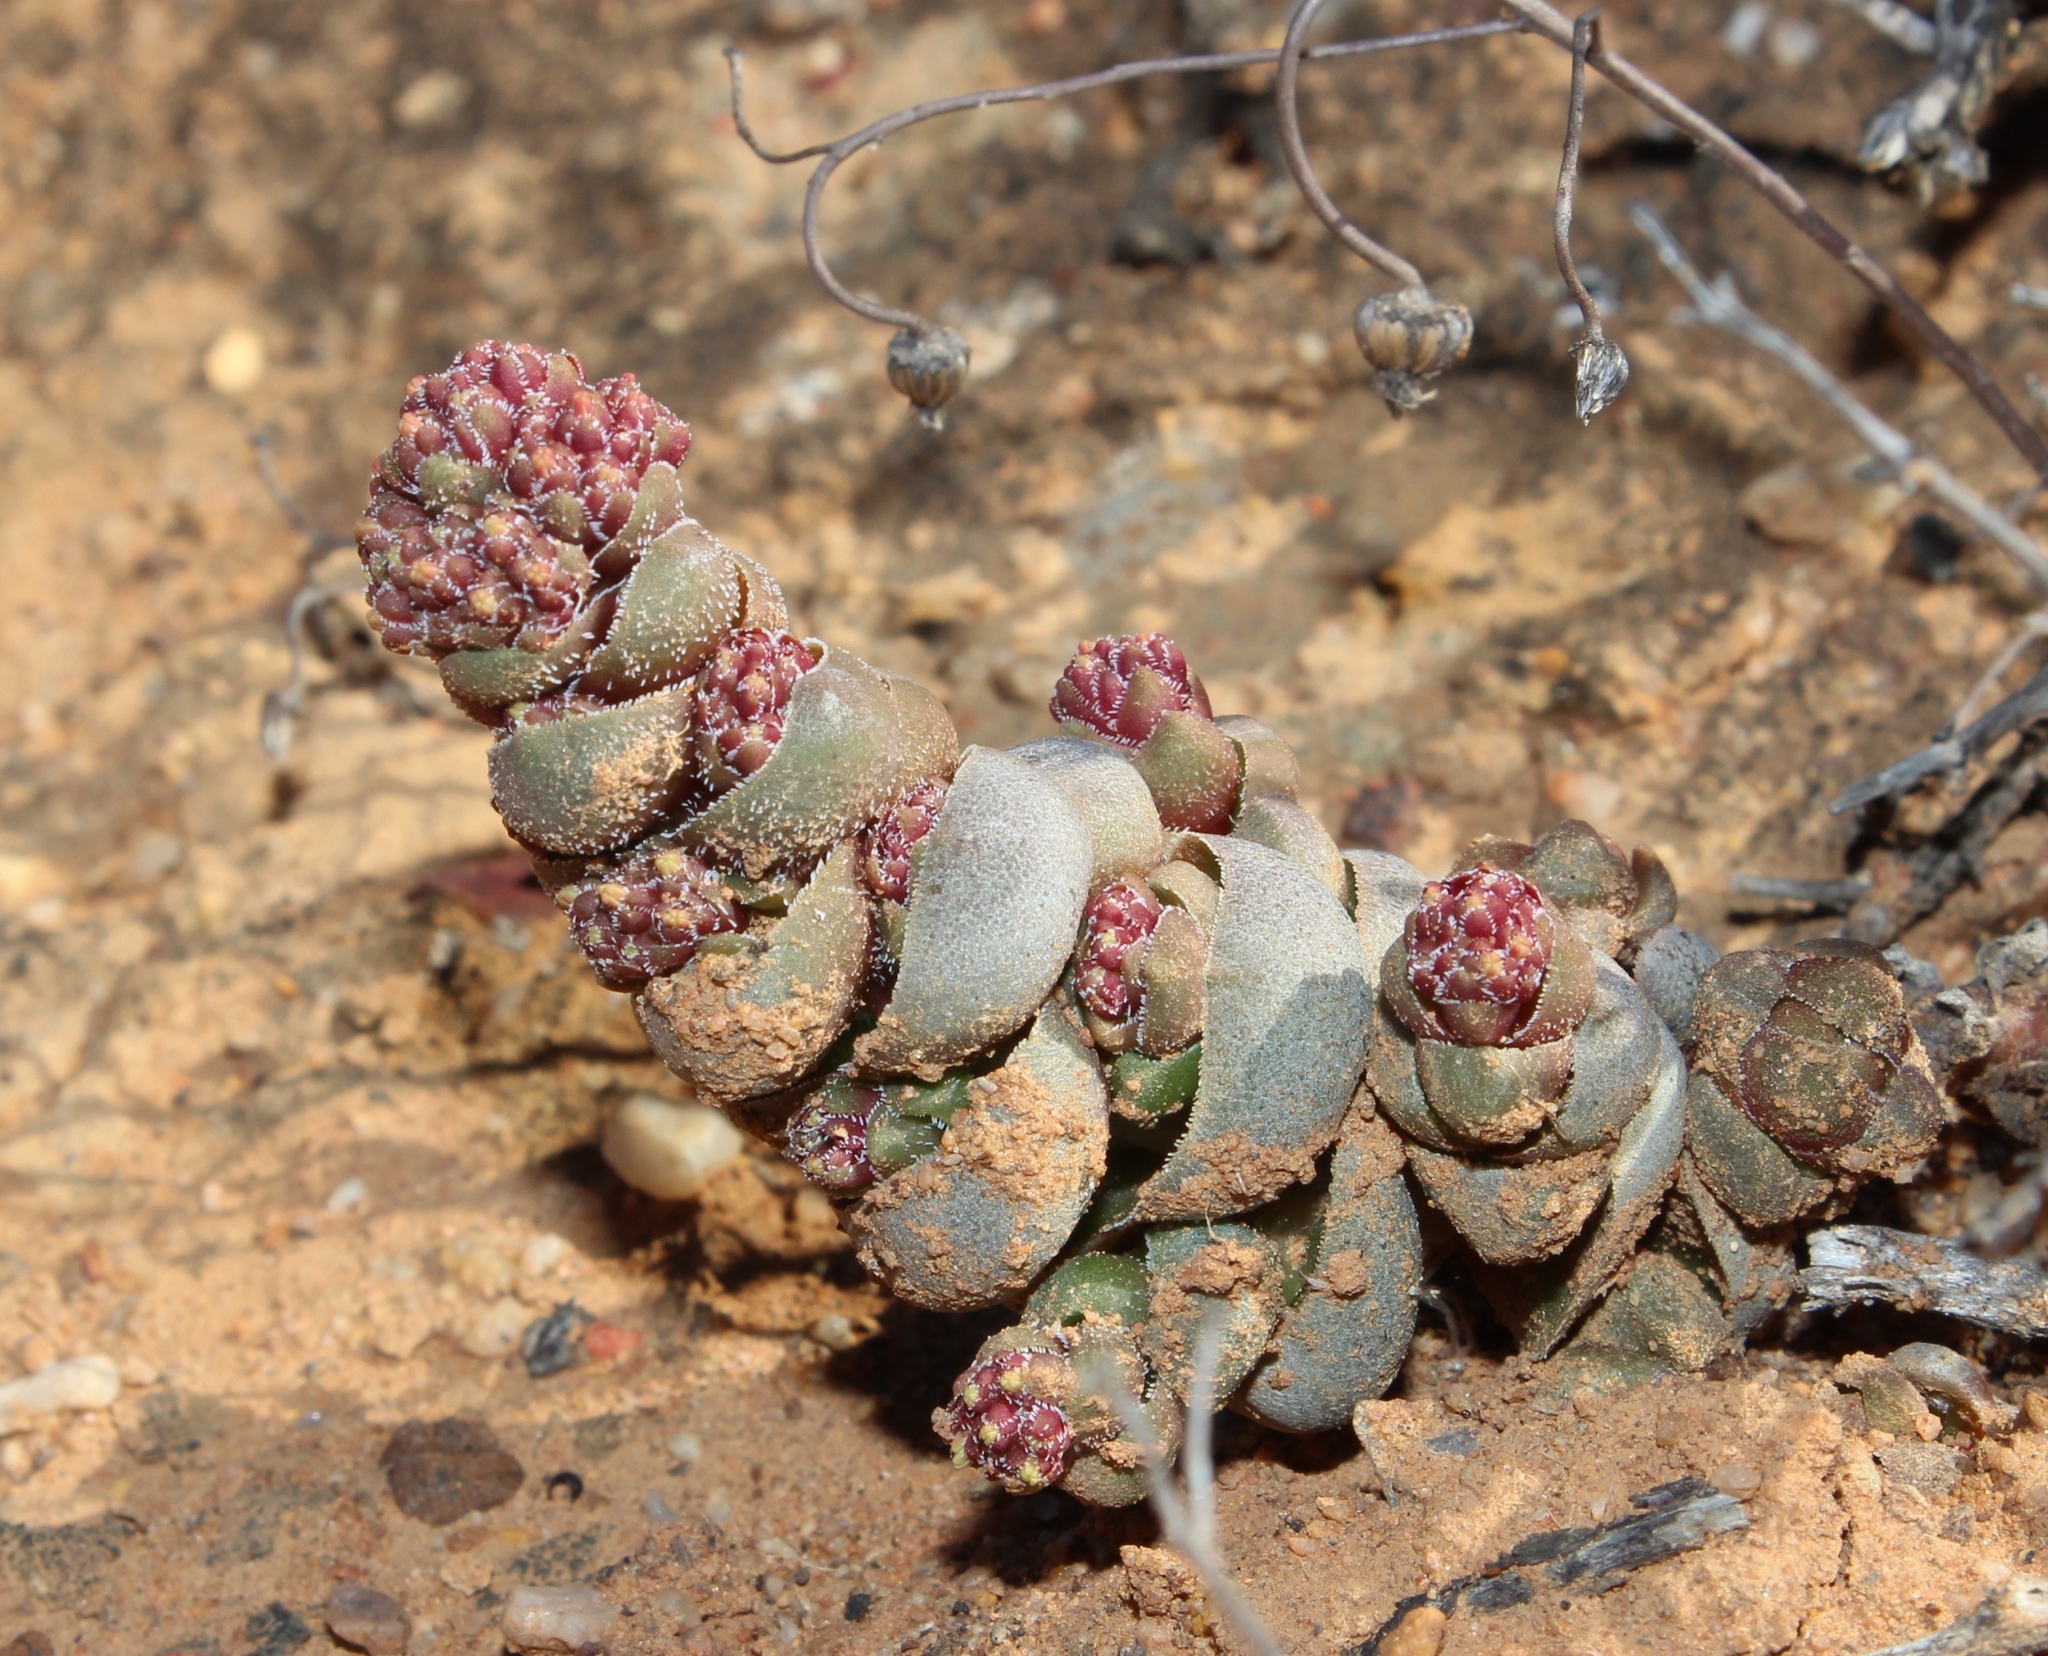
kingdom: Plantae
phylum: Tracheophyta
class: Magnoliopsida
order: Saxifragales
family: Crassulaceae
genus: Crassula
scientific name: Crassula columnaris
